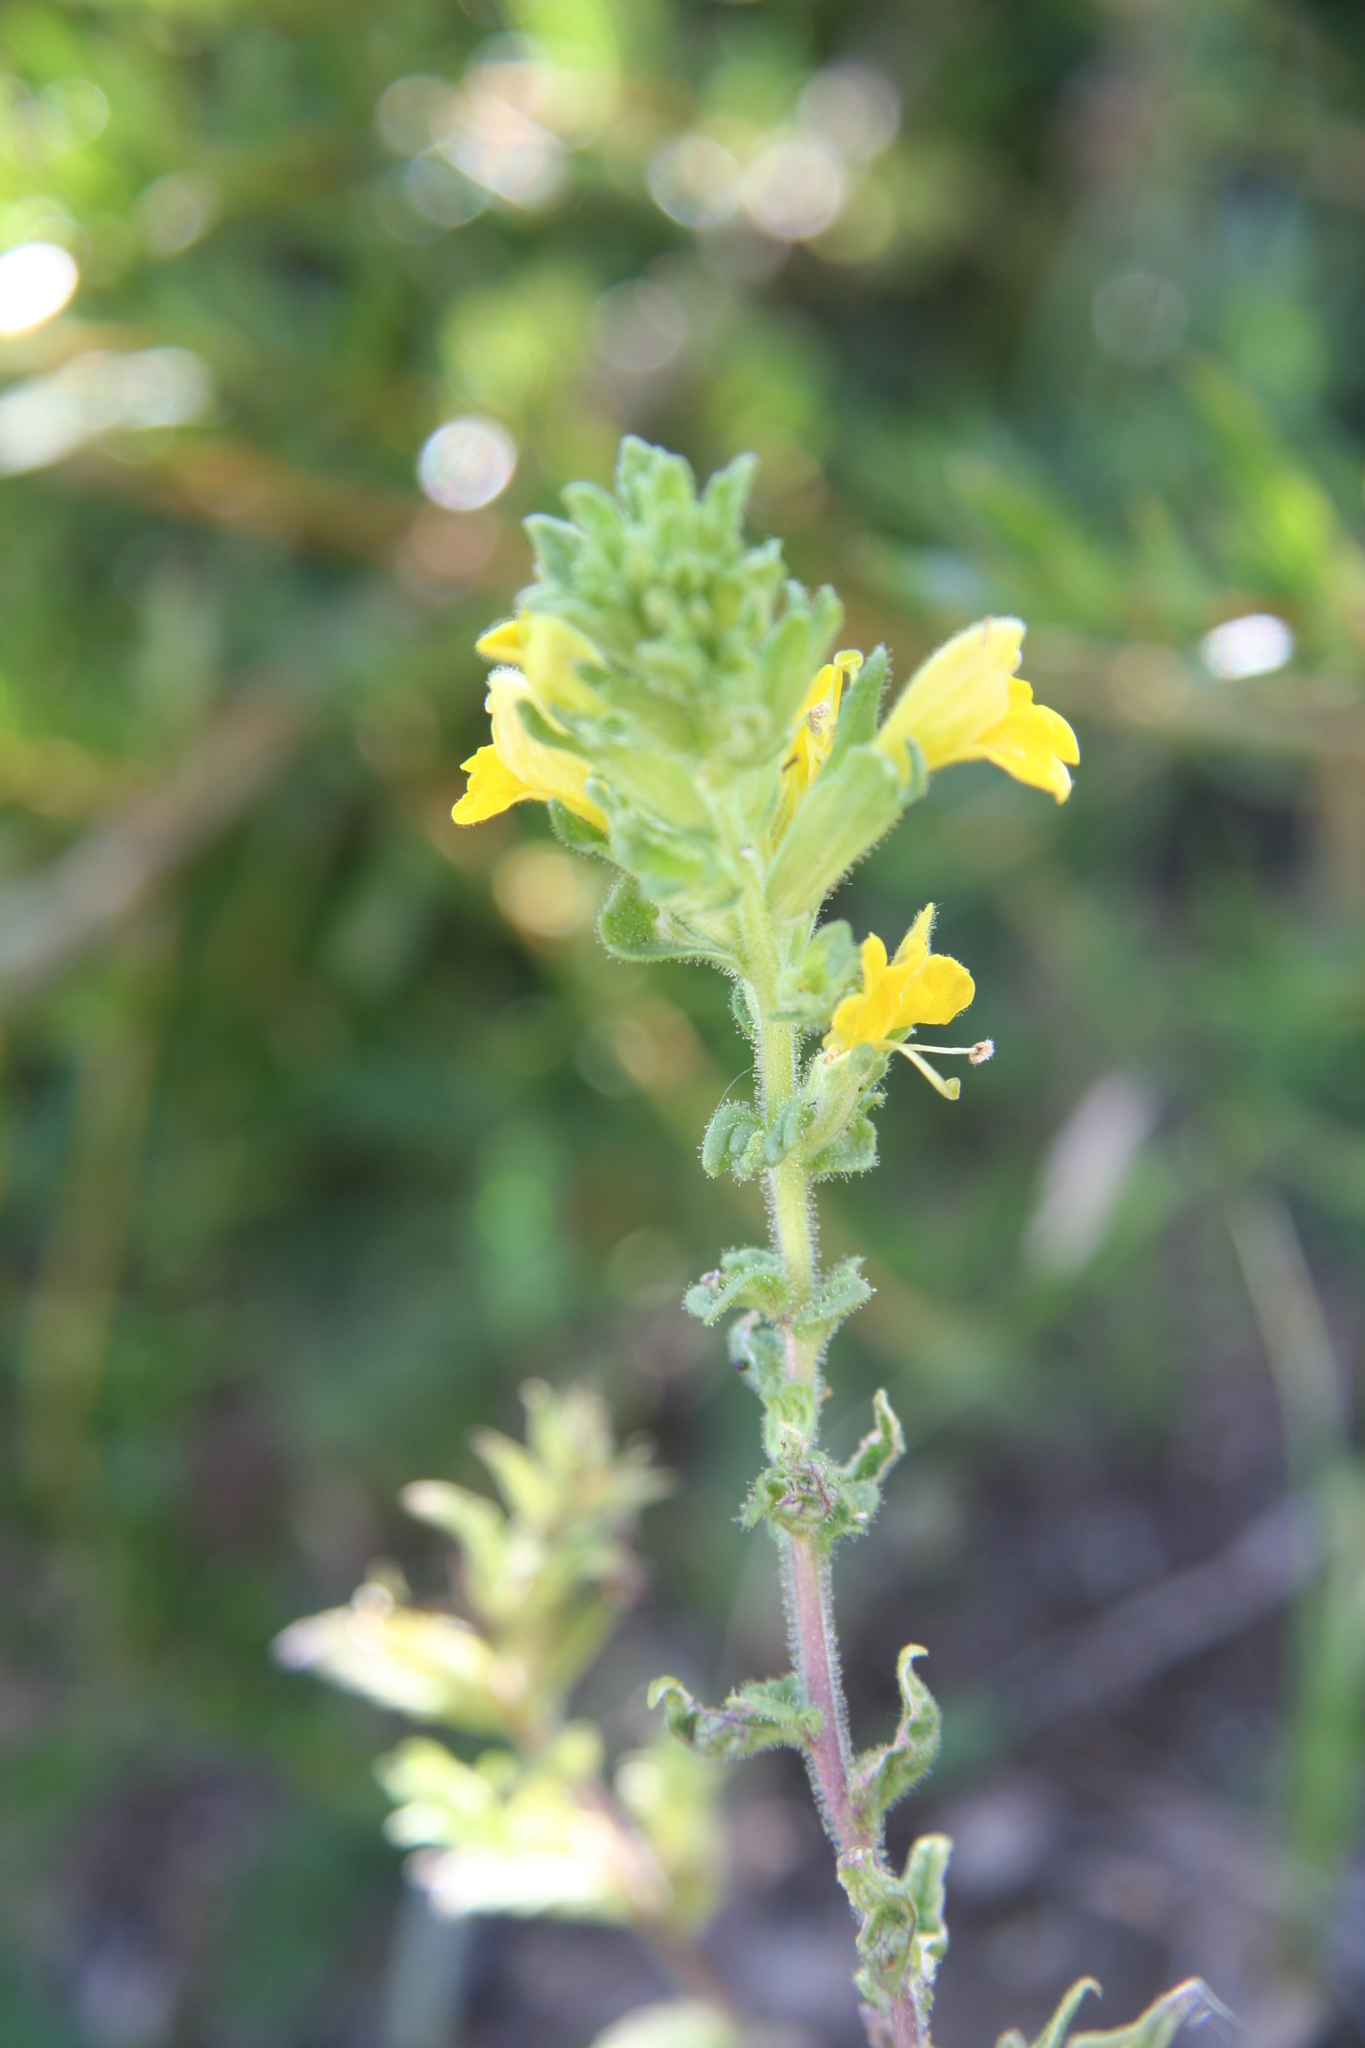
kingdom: Plantae
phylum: Tracheophyta
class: Magnoliopsida
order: Lamiales
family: Orobanchaceae
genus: Bellardia
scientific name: Bellardia viscosa
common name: Sticky parentucellia
